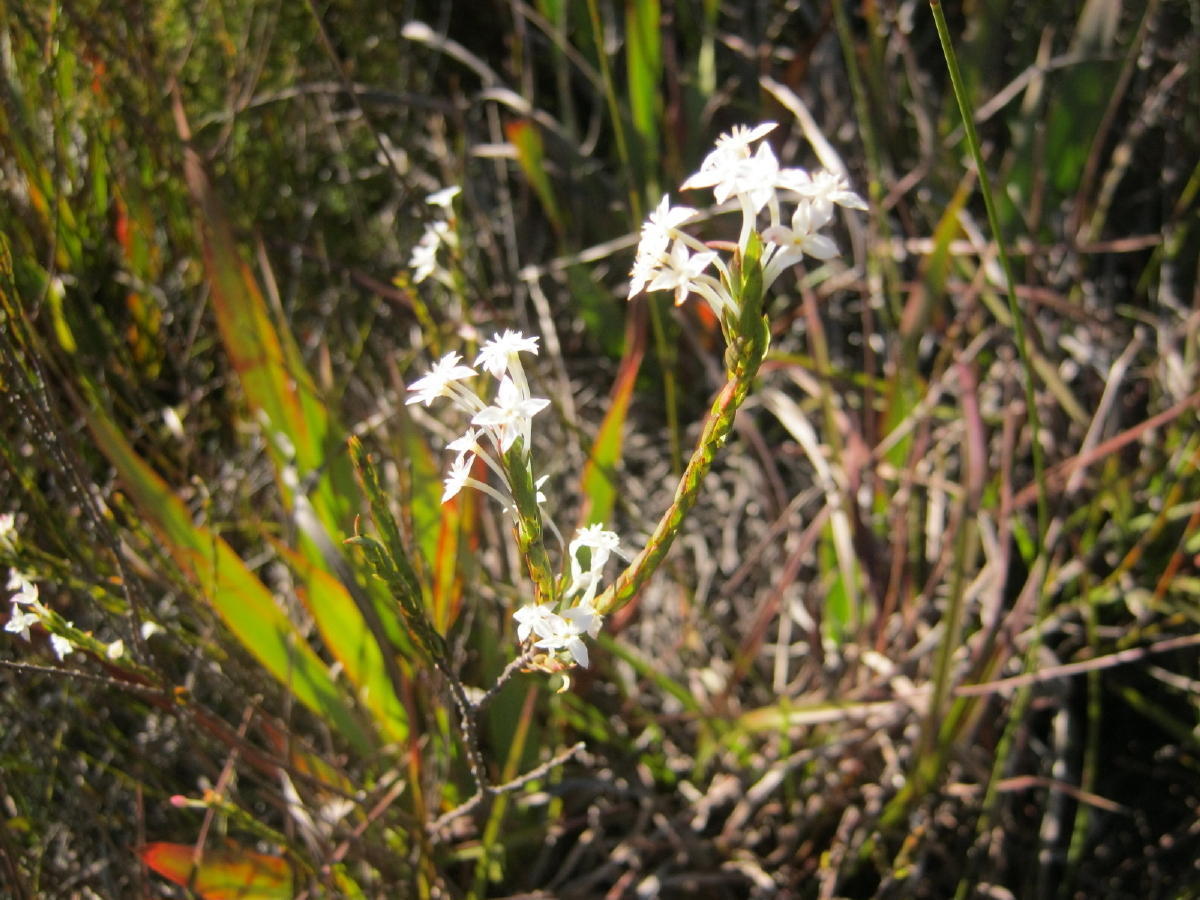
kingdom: Plantae
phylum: Tracheophyta
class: Magnoliopsida
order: Malvales
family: Thymelaeaceae
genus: Struthiola
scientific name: Struthiola myrsinites
